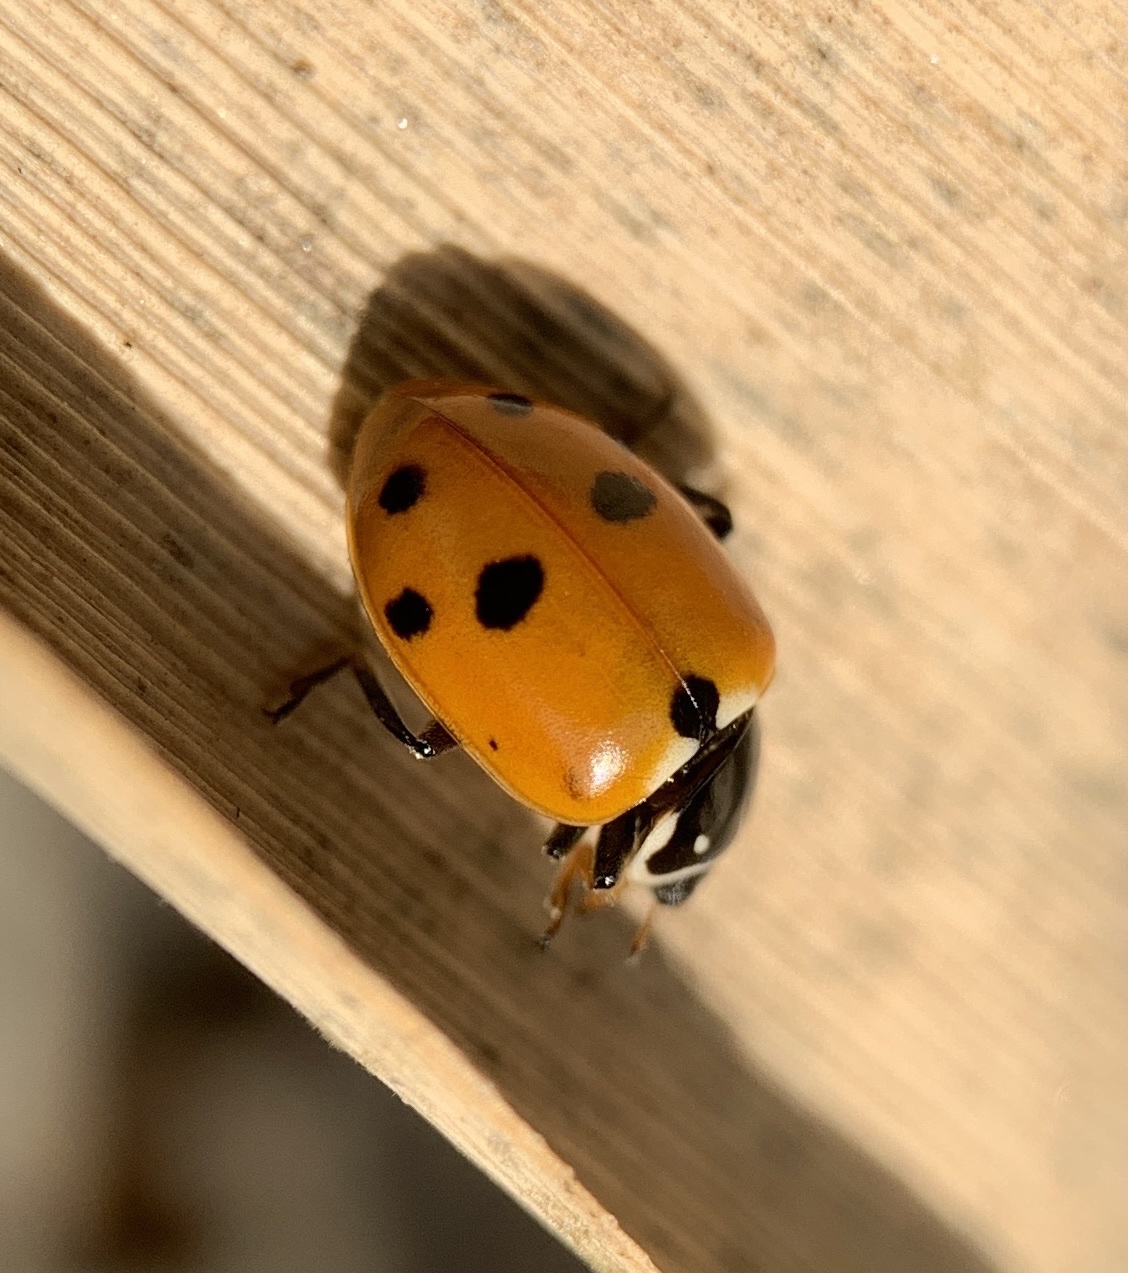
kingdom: Animalia
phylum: Arthropoda
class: Insecta
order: Coleoptera
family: Coccinellidae
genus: Hippodamia
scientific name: Hippodamia variegata
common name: Ladybird beetle
